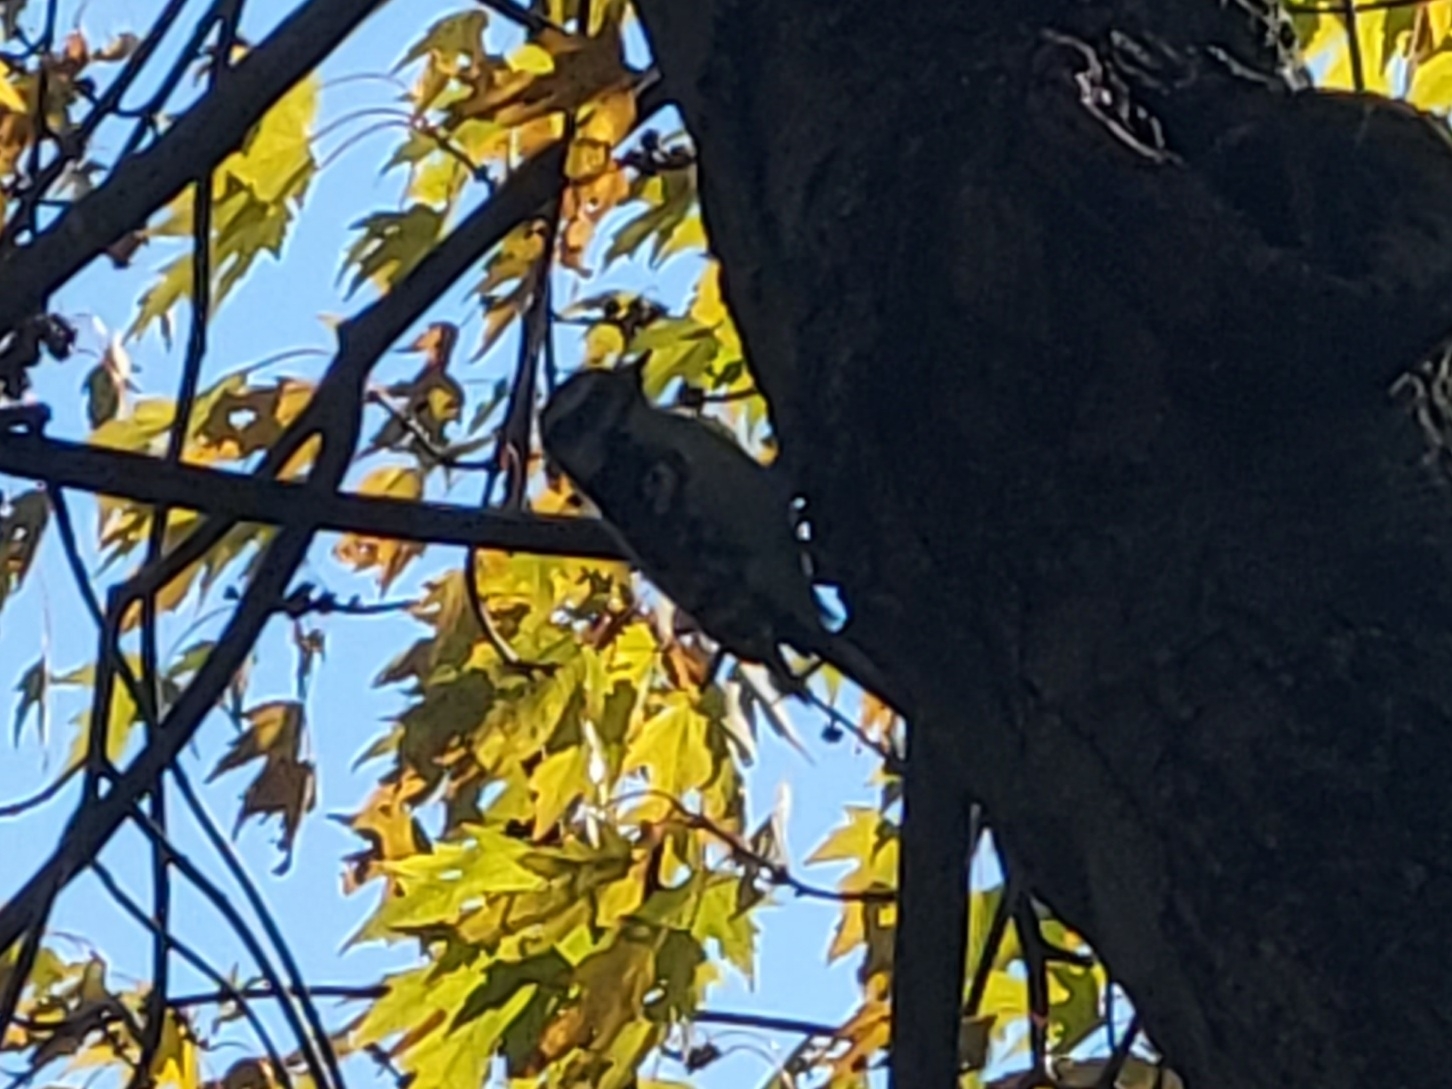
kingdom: Animalia
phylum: Chordata
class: Aves
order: Piciformes
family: Picidae
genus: Dryobates
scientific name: Dryobates pubescens
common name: Downy woodpecker
